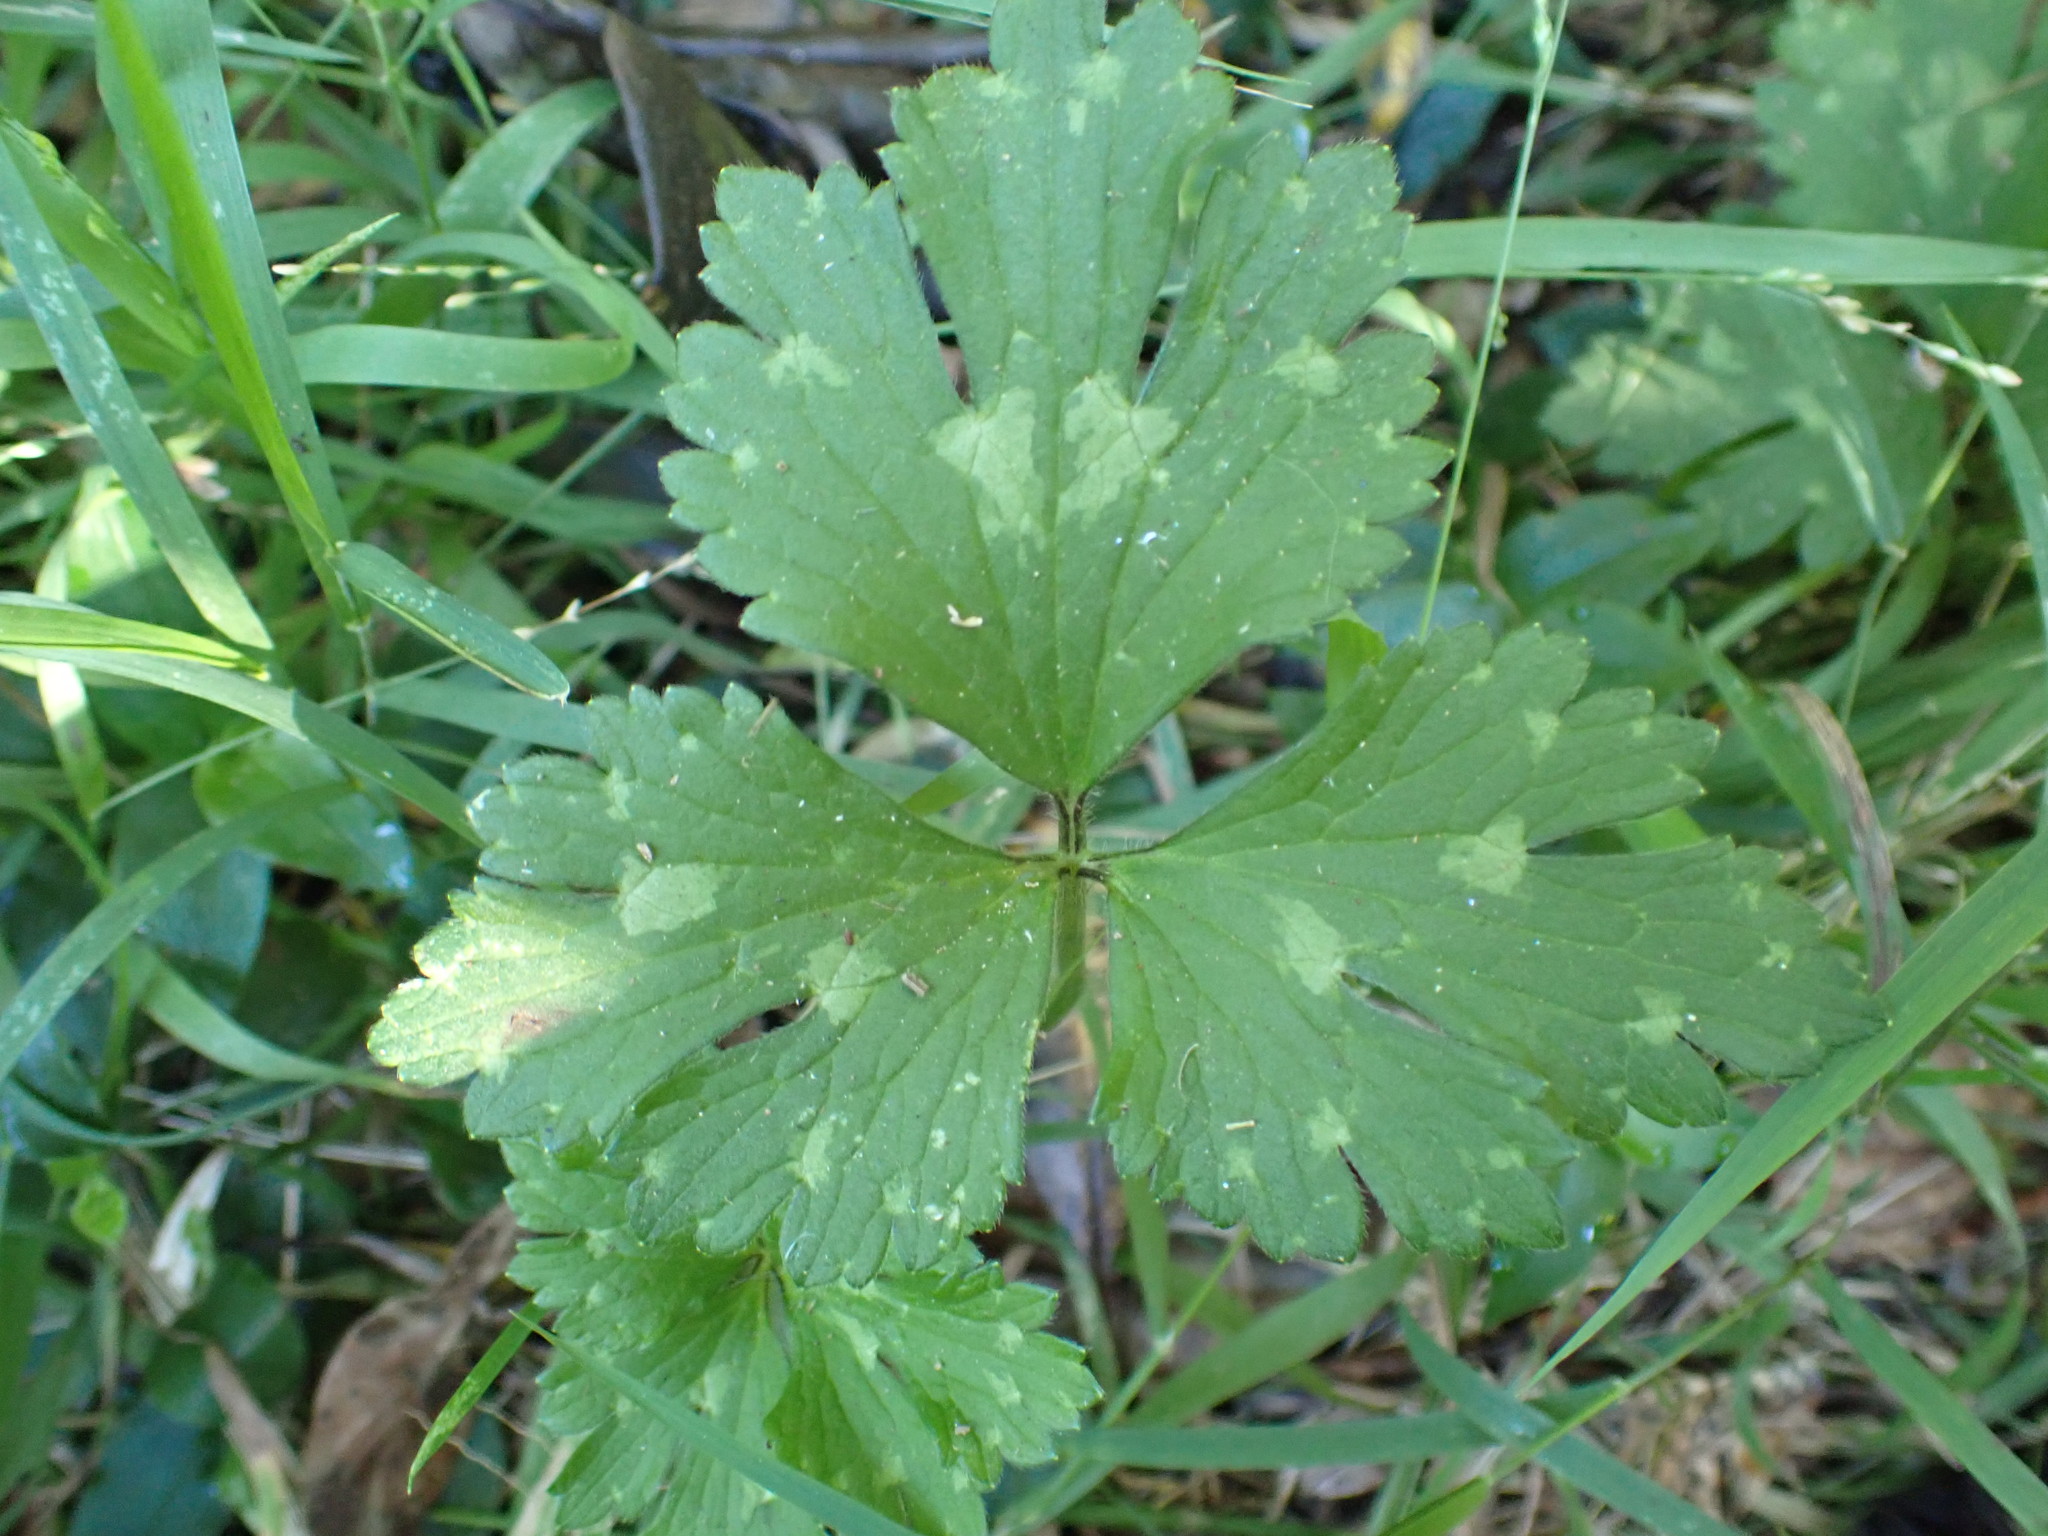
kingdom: Plantae
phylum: Tracheophyta
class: Magnoliopsida
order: Ranunculales
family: Ranunculaceae
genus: Ranunculus
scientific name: Ranunculus repens
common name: Creeping buttercup
